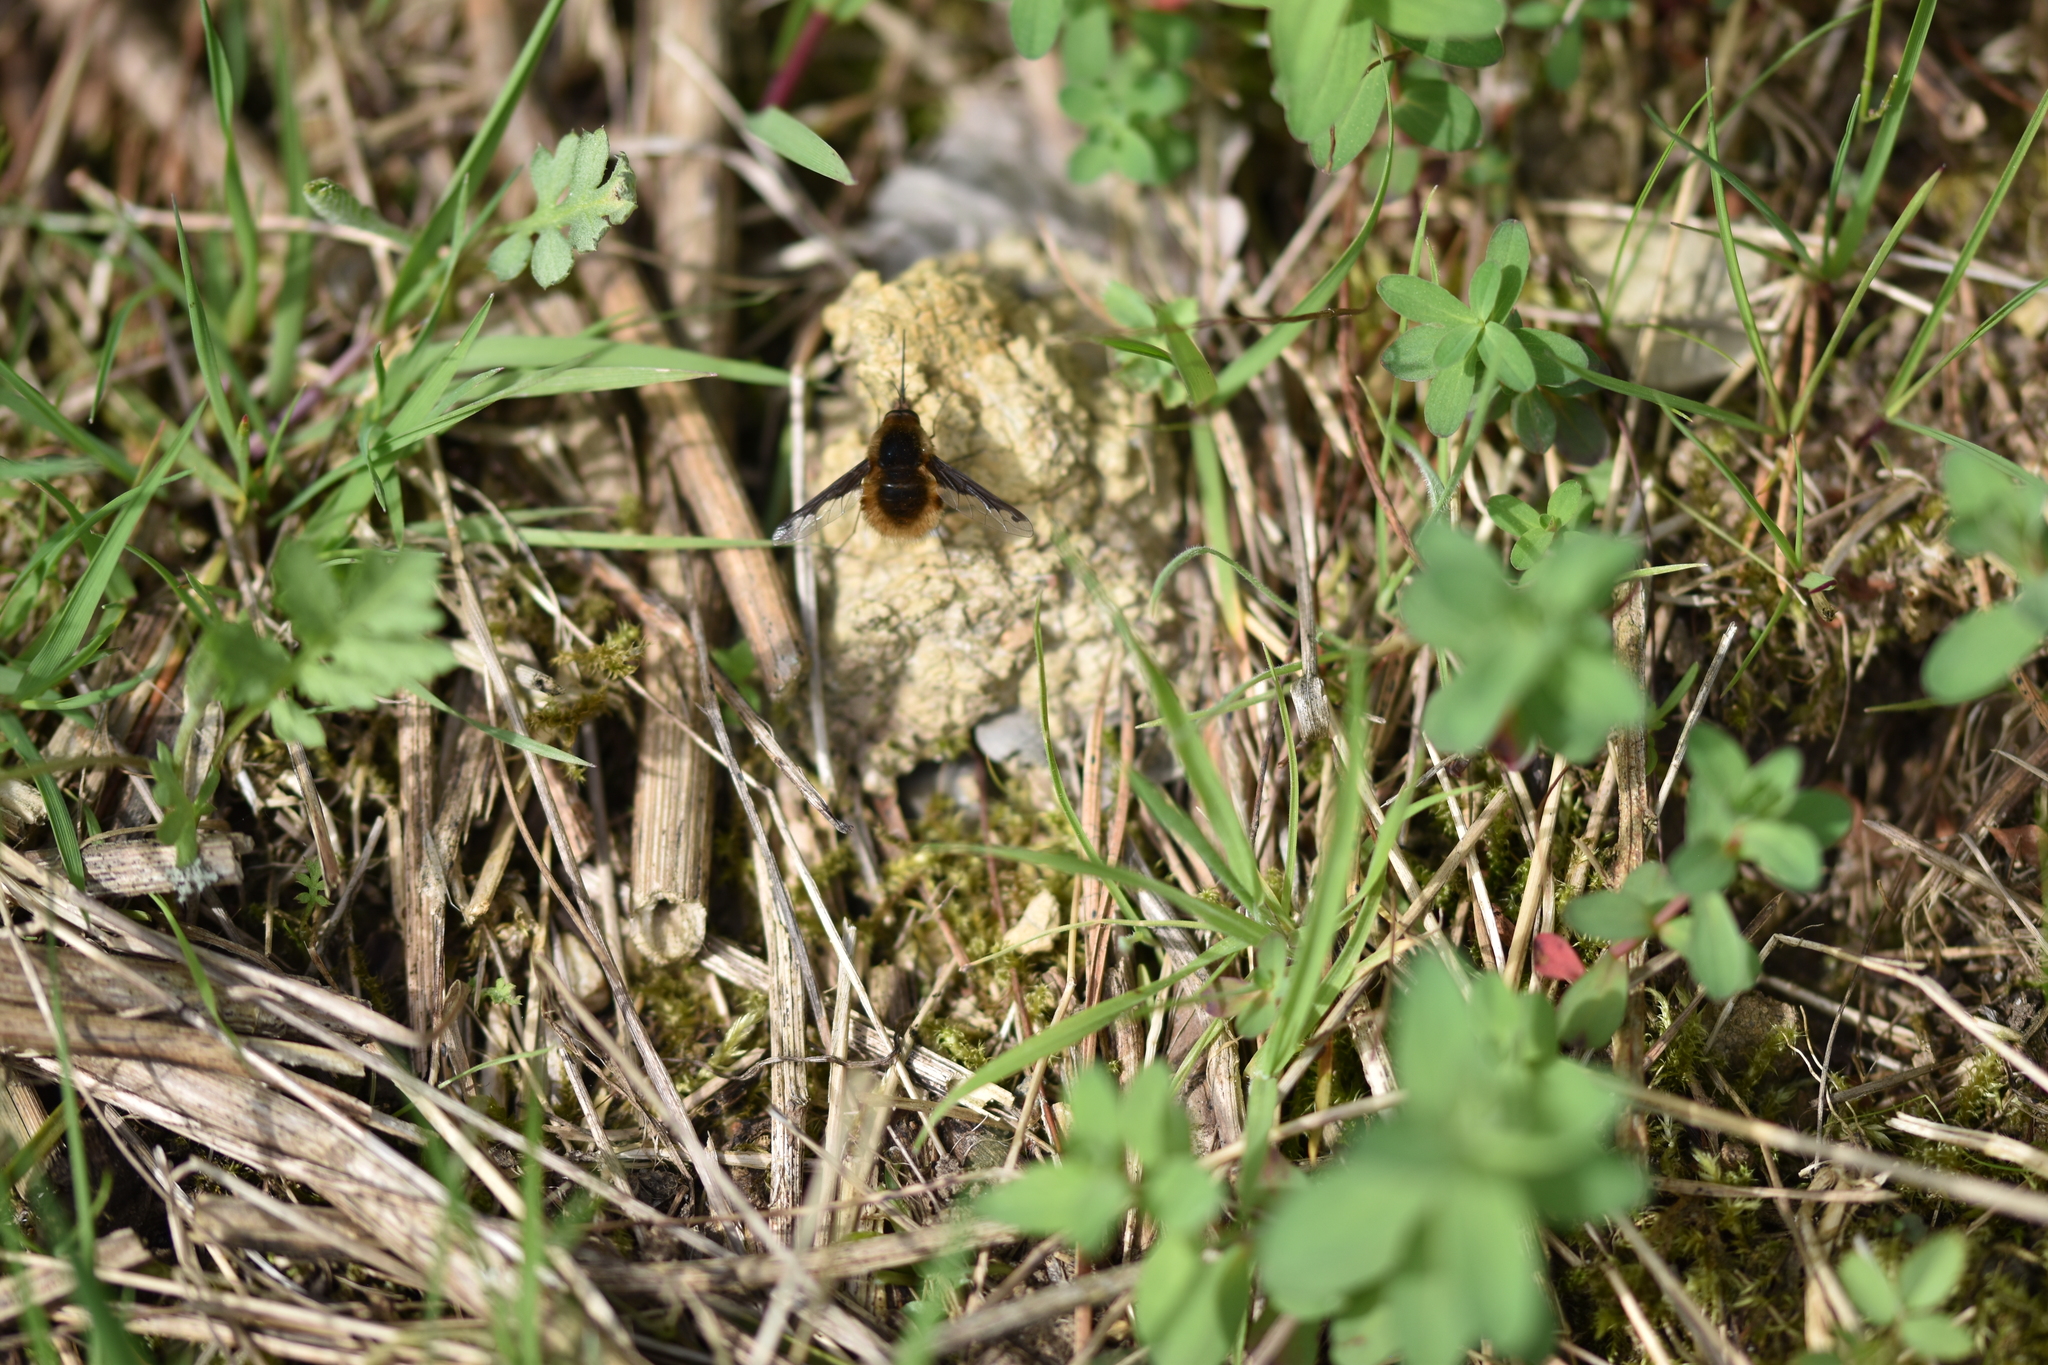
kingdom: Animalia
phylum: Arthropoda
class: Insecta
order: Diptera
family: Bombyliidae
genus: Bombylius
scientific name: Bombylius major
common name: Bee fly
